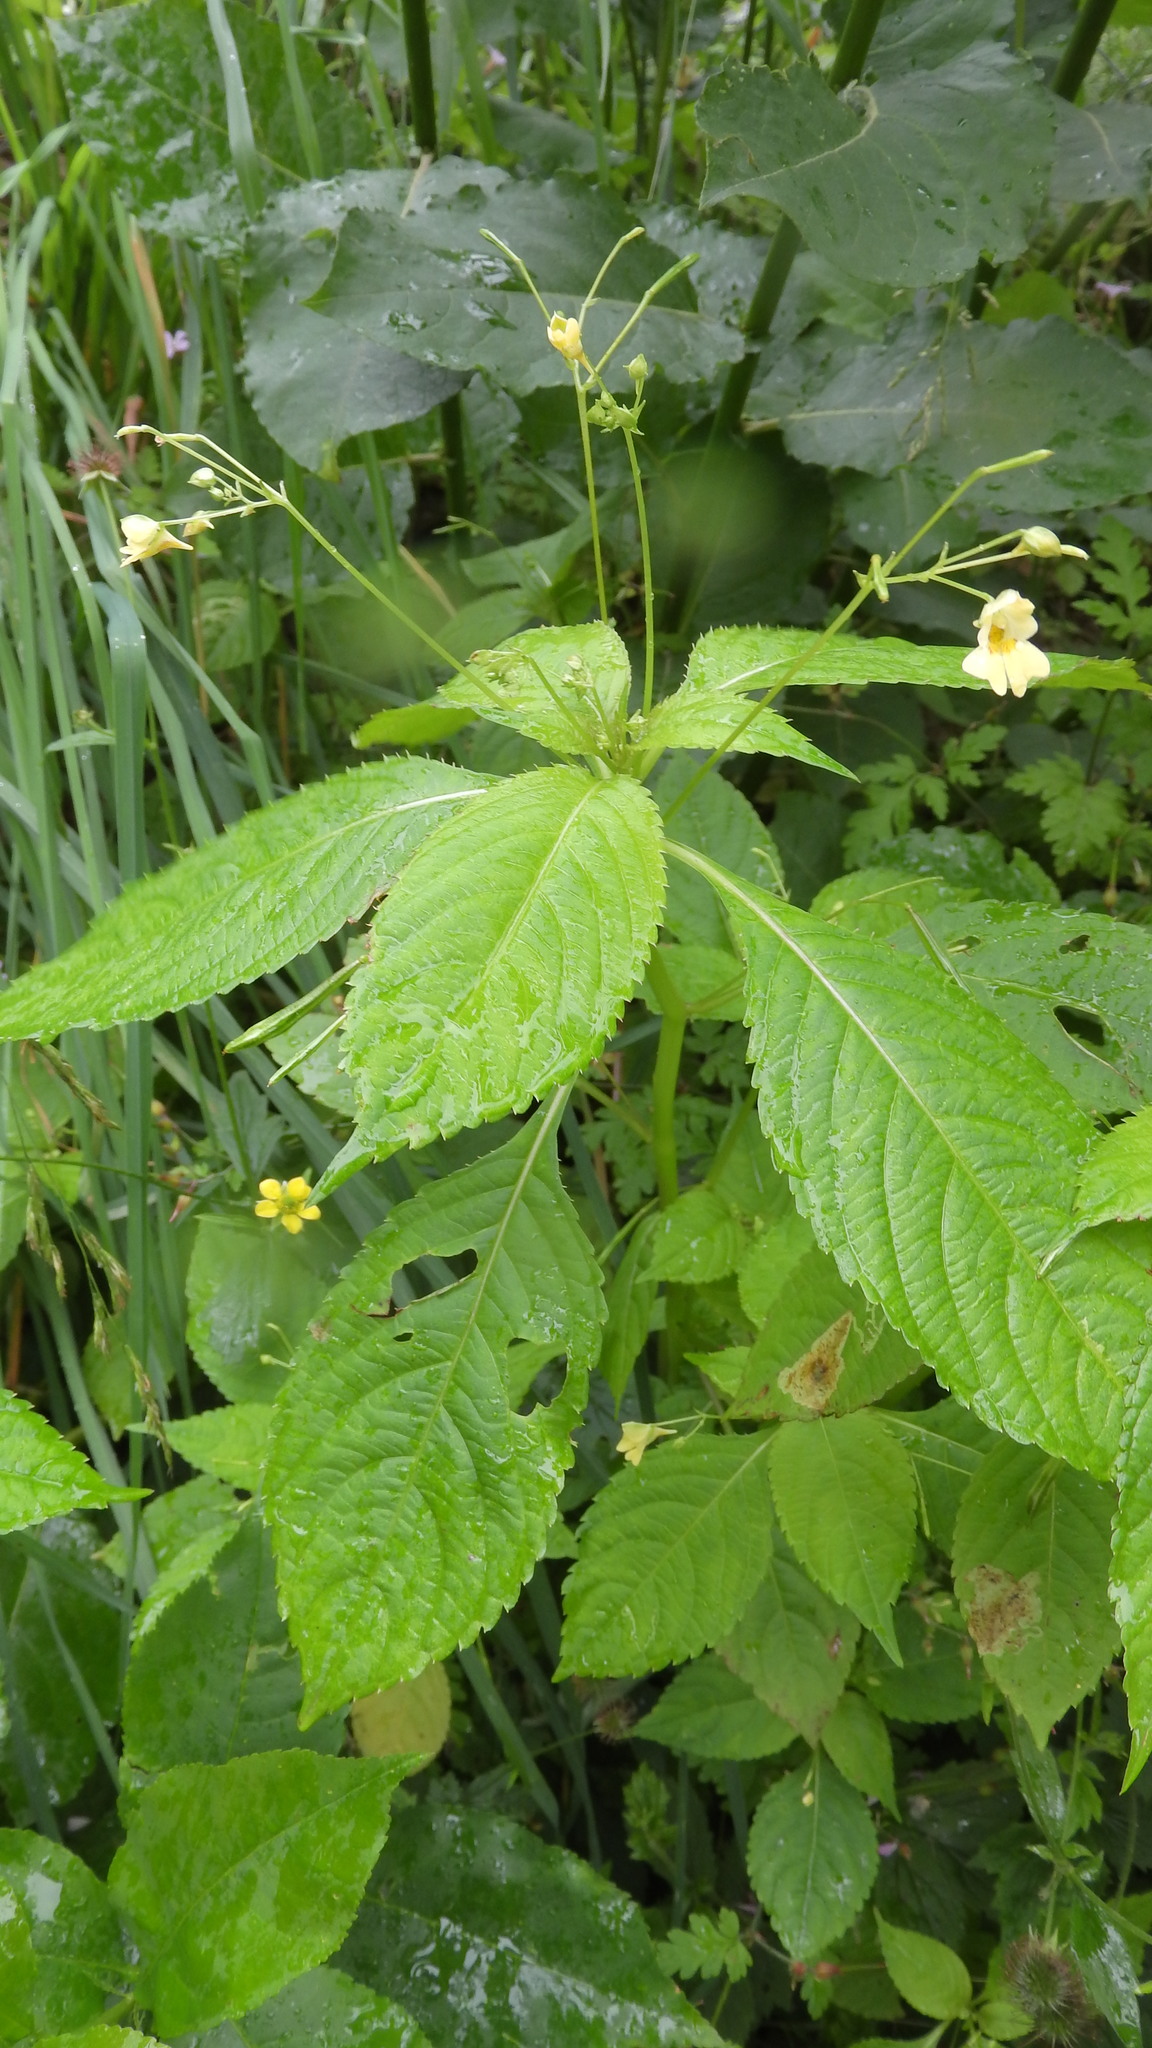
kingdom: Plantae
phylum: Tracheophyta
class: Magnoliopsida
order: Ericales
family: Balsaminaceae
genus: Impatiens
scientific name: Impatiens parviflora
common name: Small balsam
